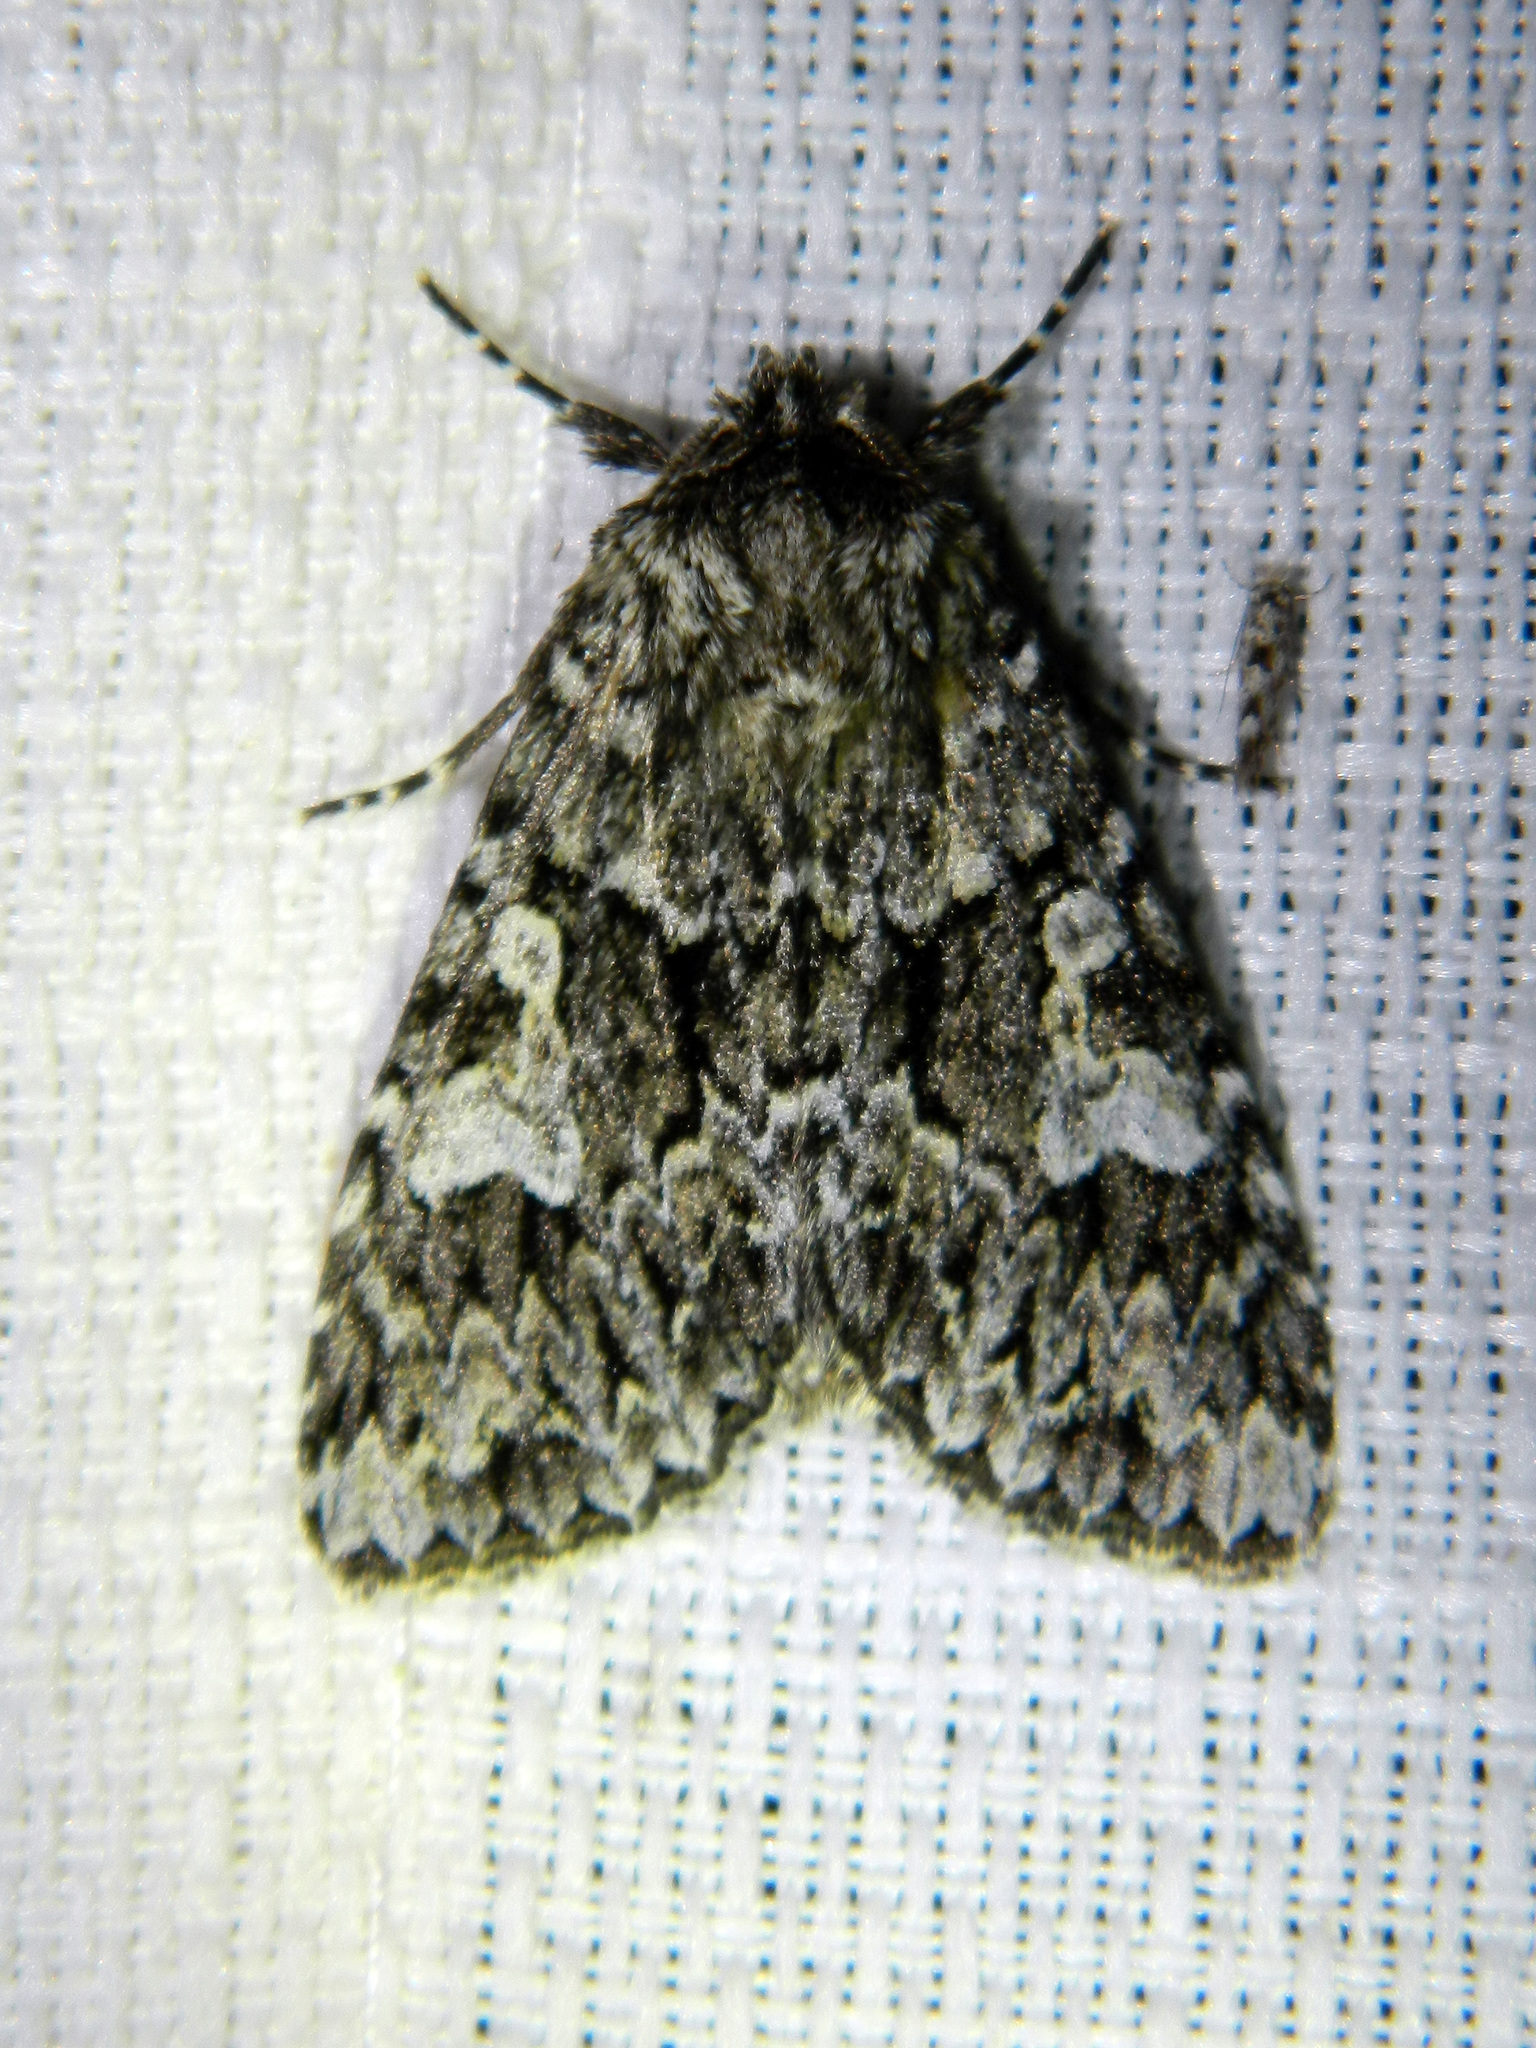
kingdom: Animalia
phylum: Arthropoda
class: Insecta
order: Lepidoptera
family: Noctuidae
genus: Platypolia
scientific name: Platypolia anceps
